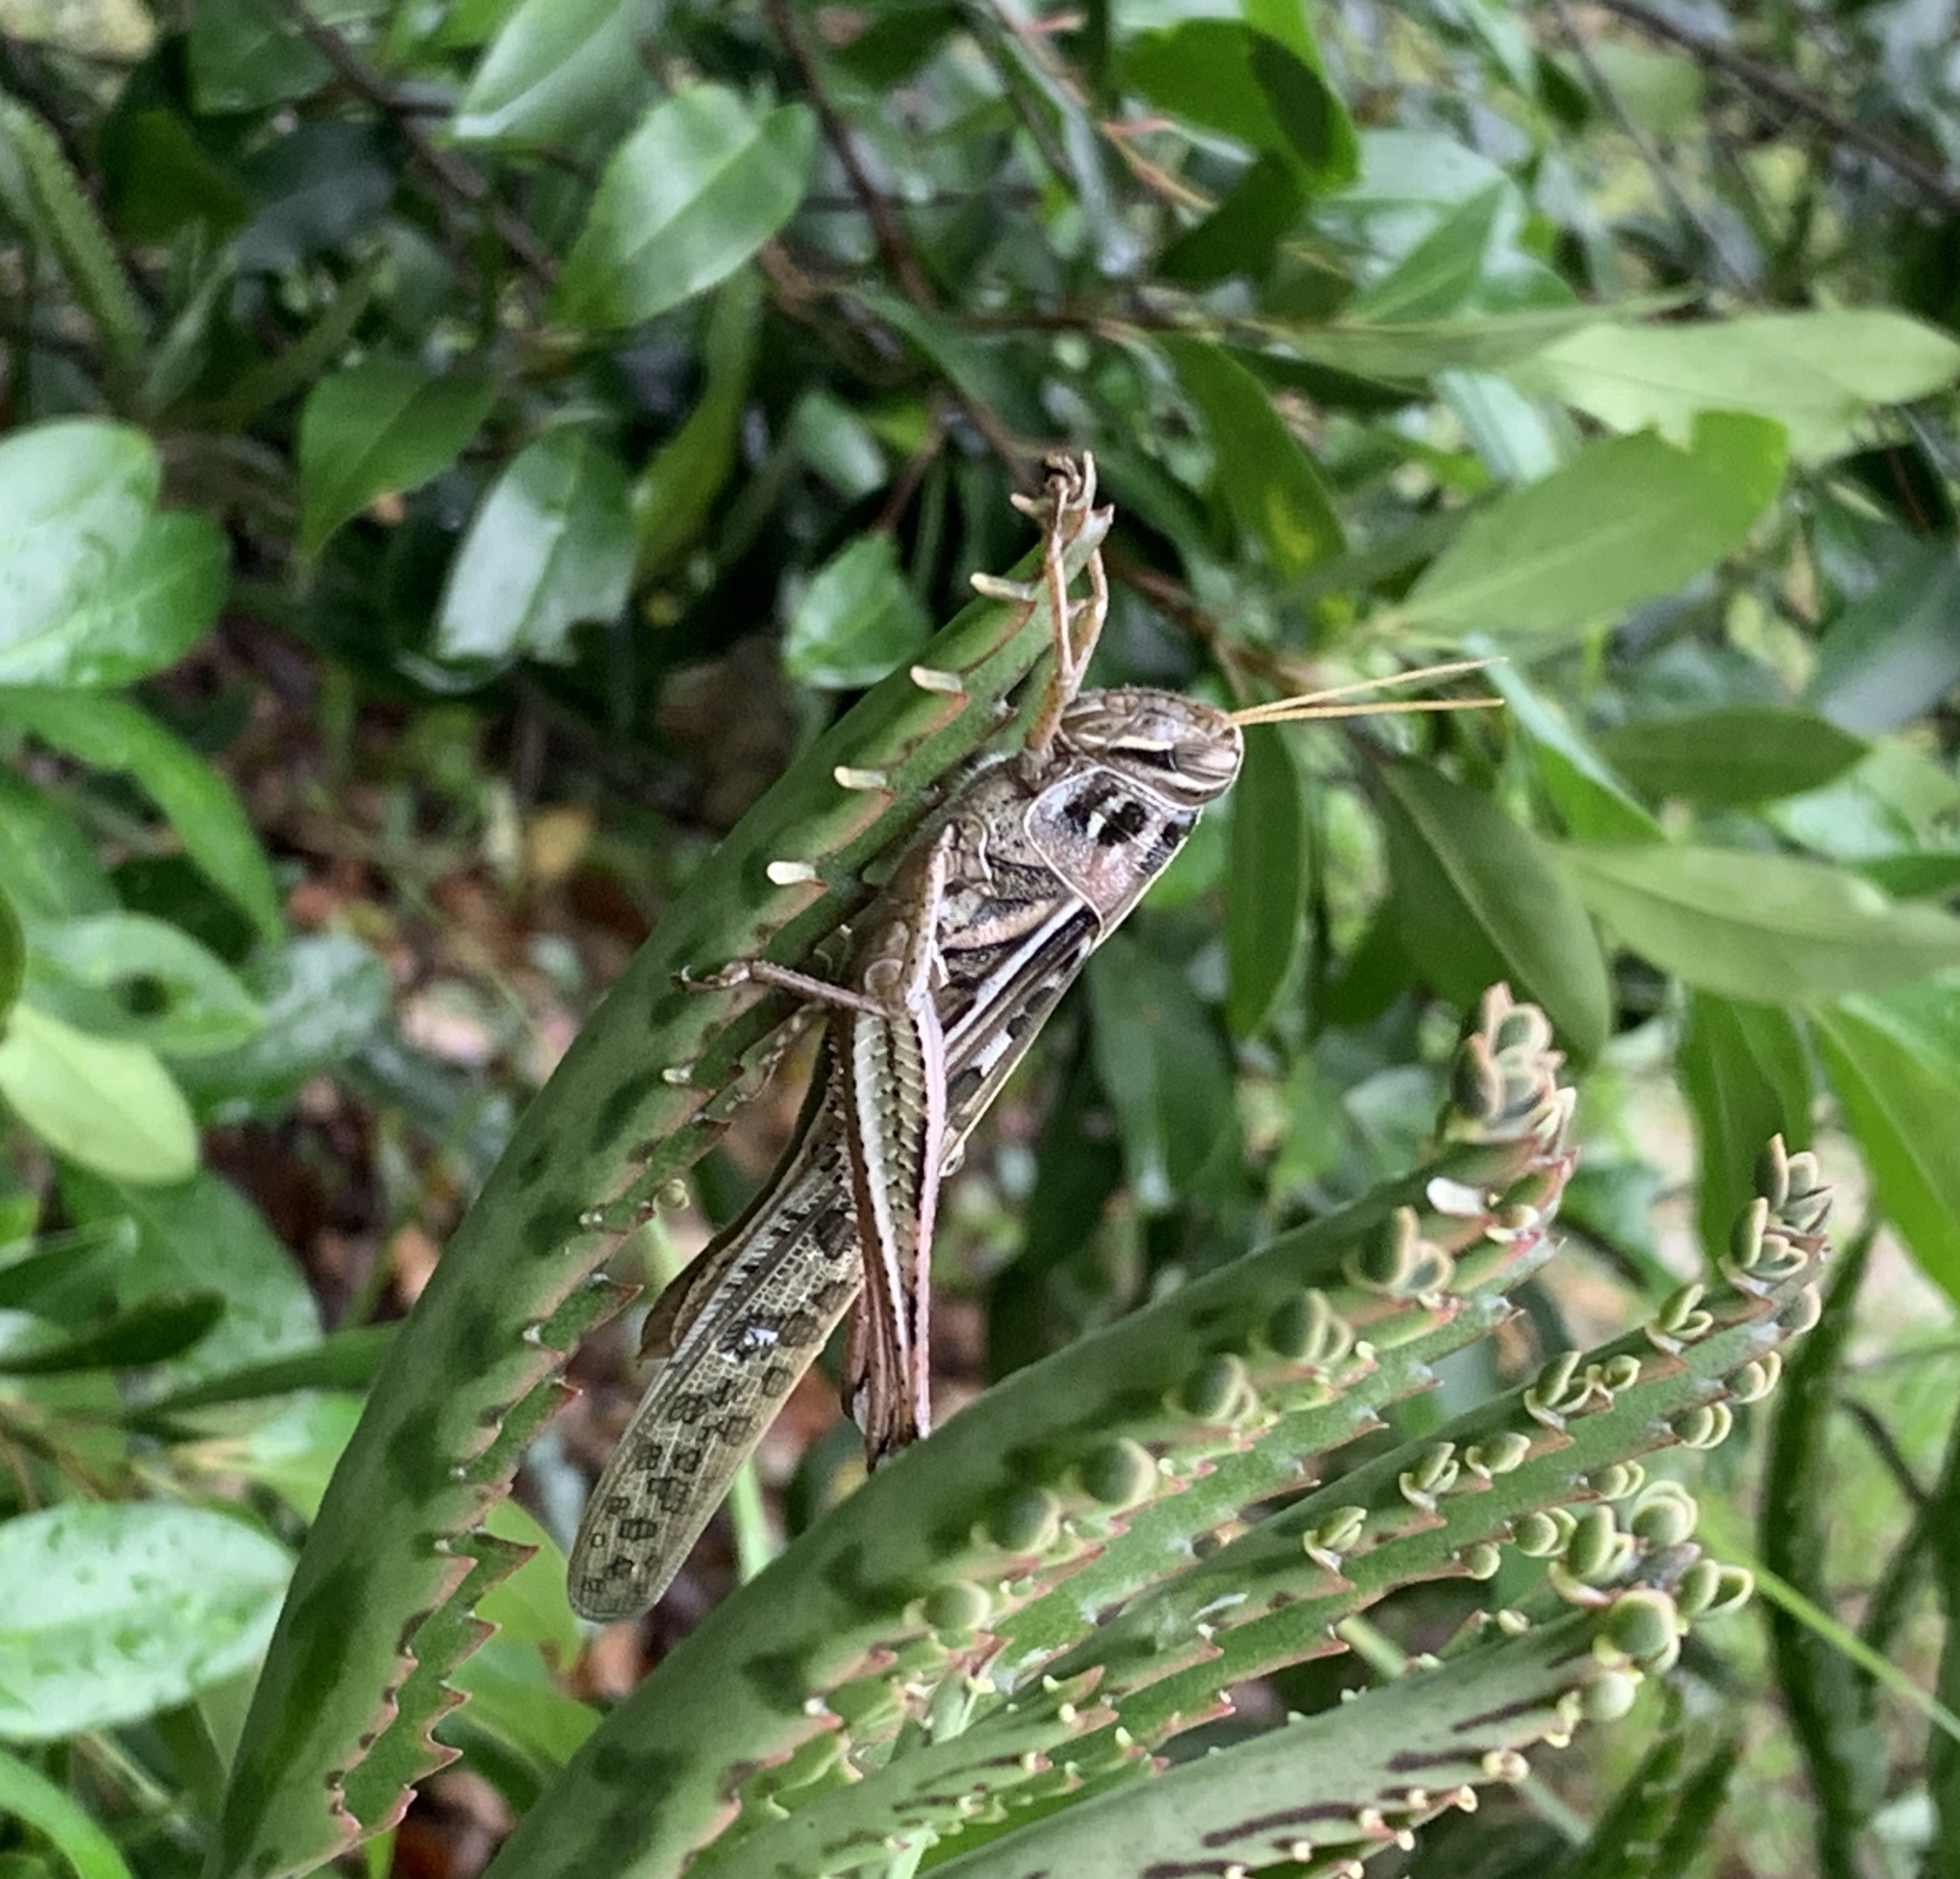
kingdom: Animalia
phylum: Arthropoda
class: Insecta
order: Orthoptera
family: Acrididae
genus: Schistocerca
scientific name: Schistocerca americana
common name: American bird locust
